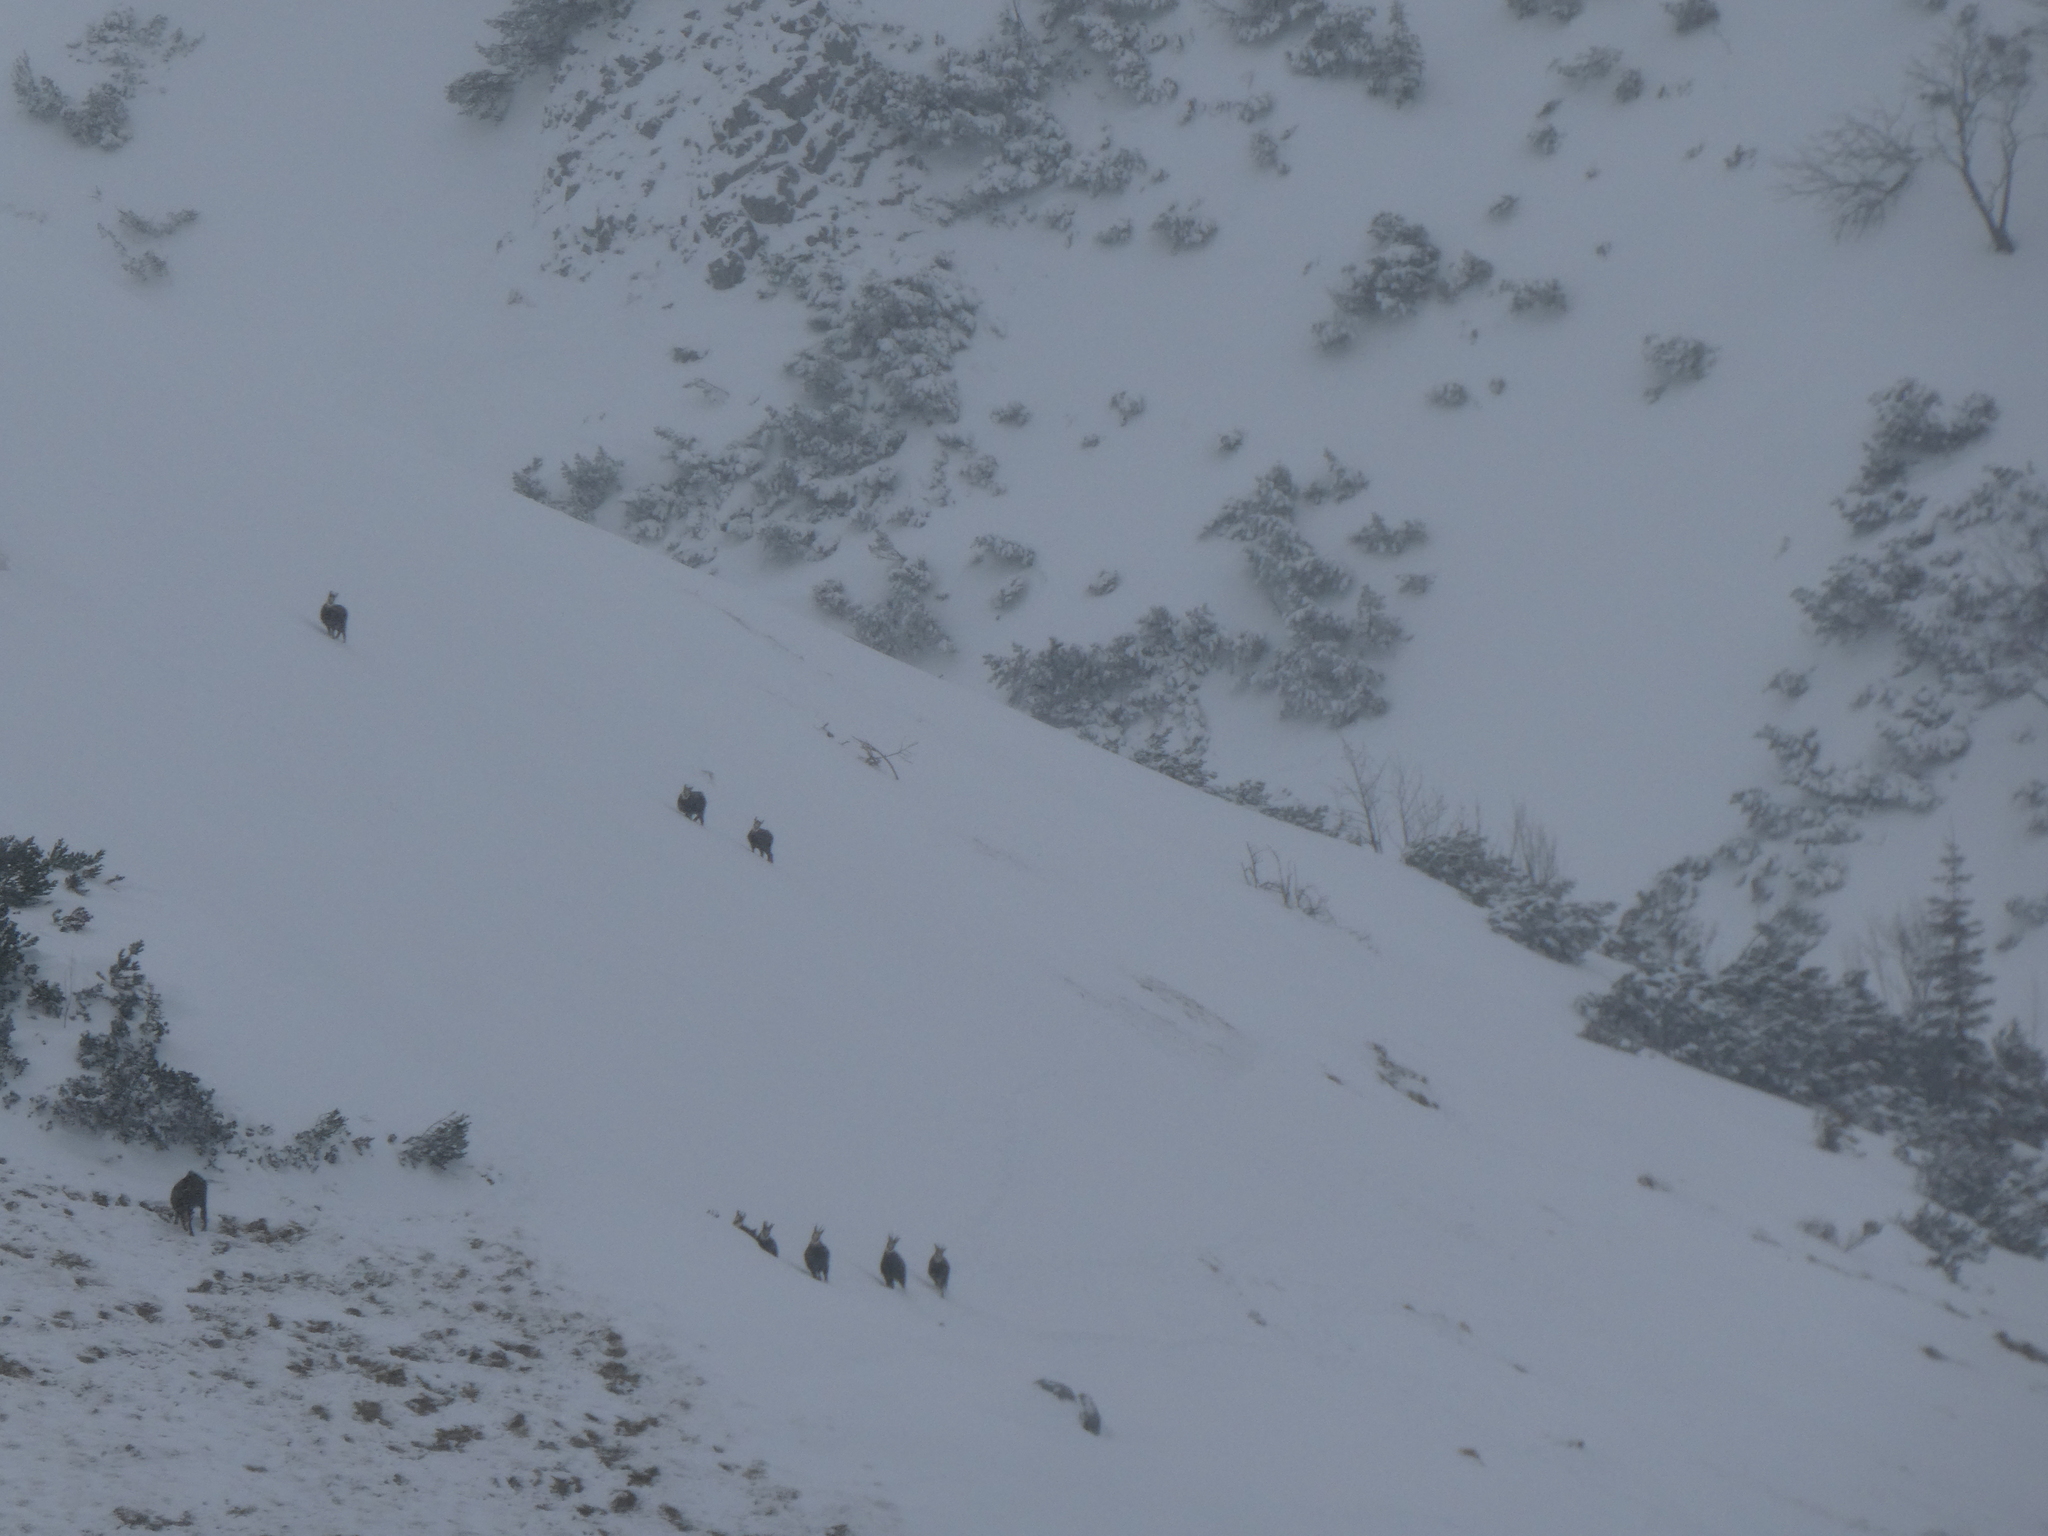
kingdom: Animalia
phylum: Chordata
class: Mammalia
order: Artiodactyla
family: Bovidae
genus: Rupicapra
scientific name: Rupicapra rupicapra
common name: Chamois
